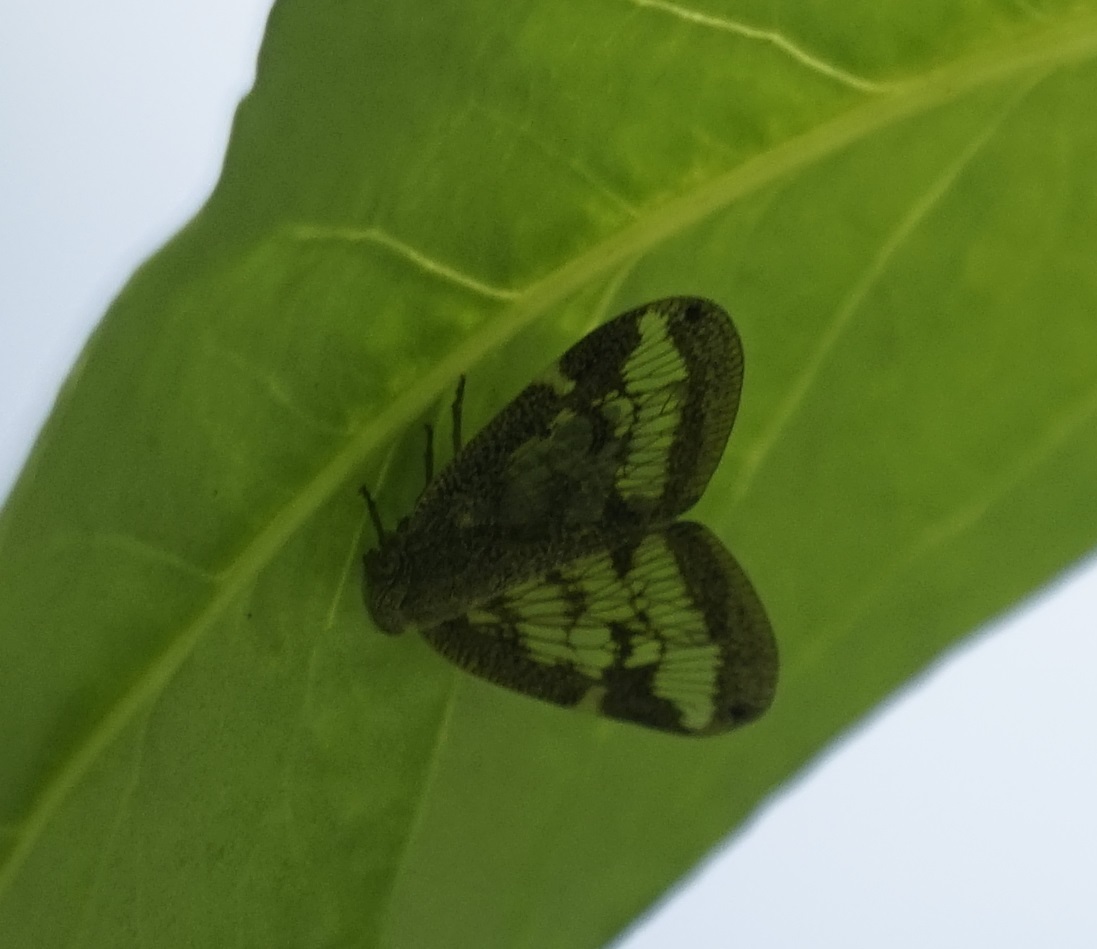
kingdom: Animalia
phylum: Arthropoda
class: Insecta
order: Hemiptera
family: Ricaniidae
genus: Scolypopa
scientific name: Scolypopa australis
